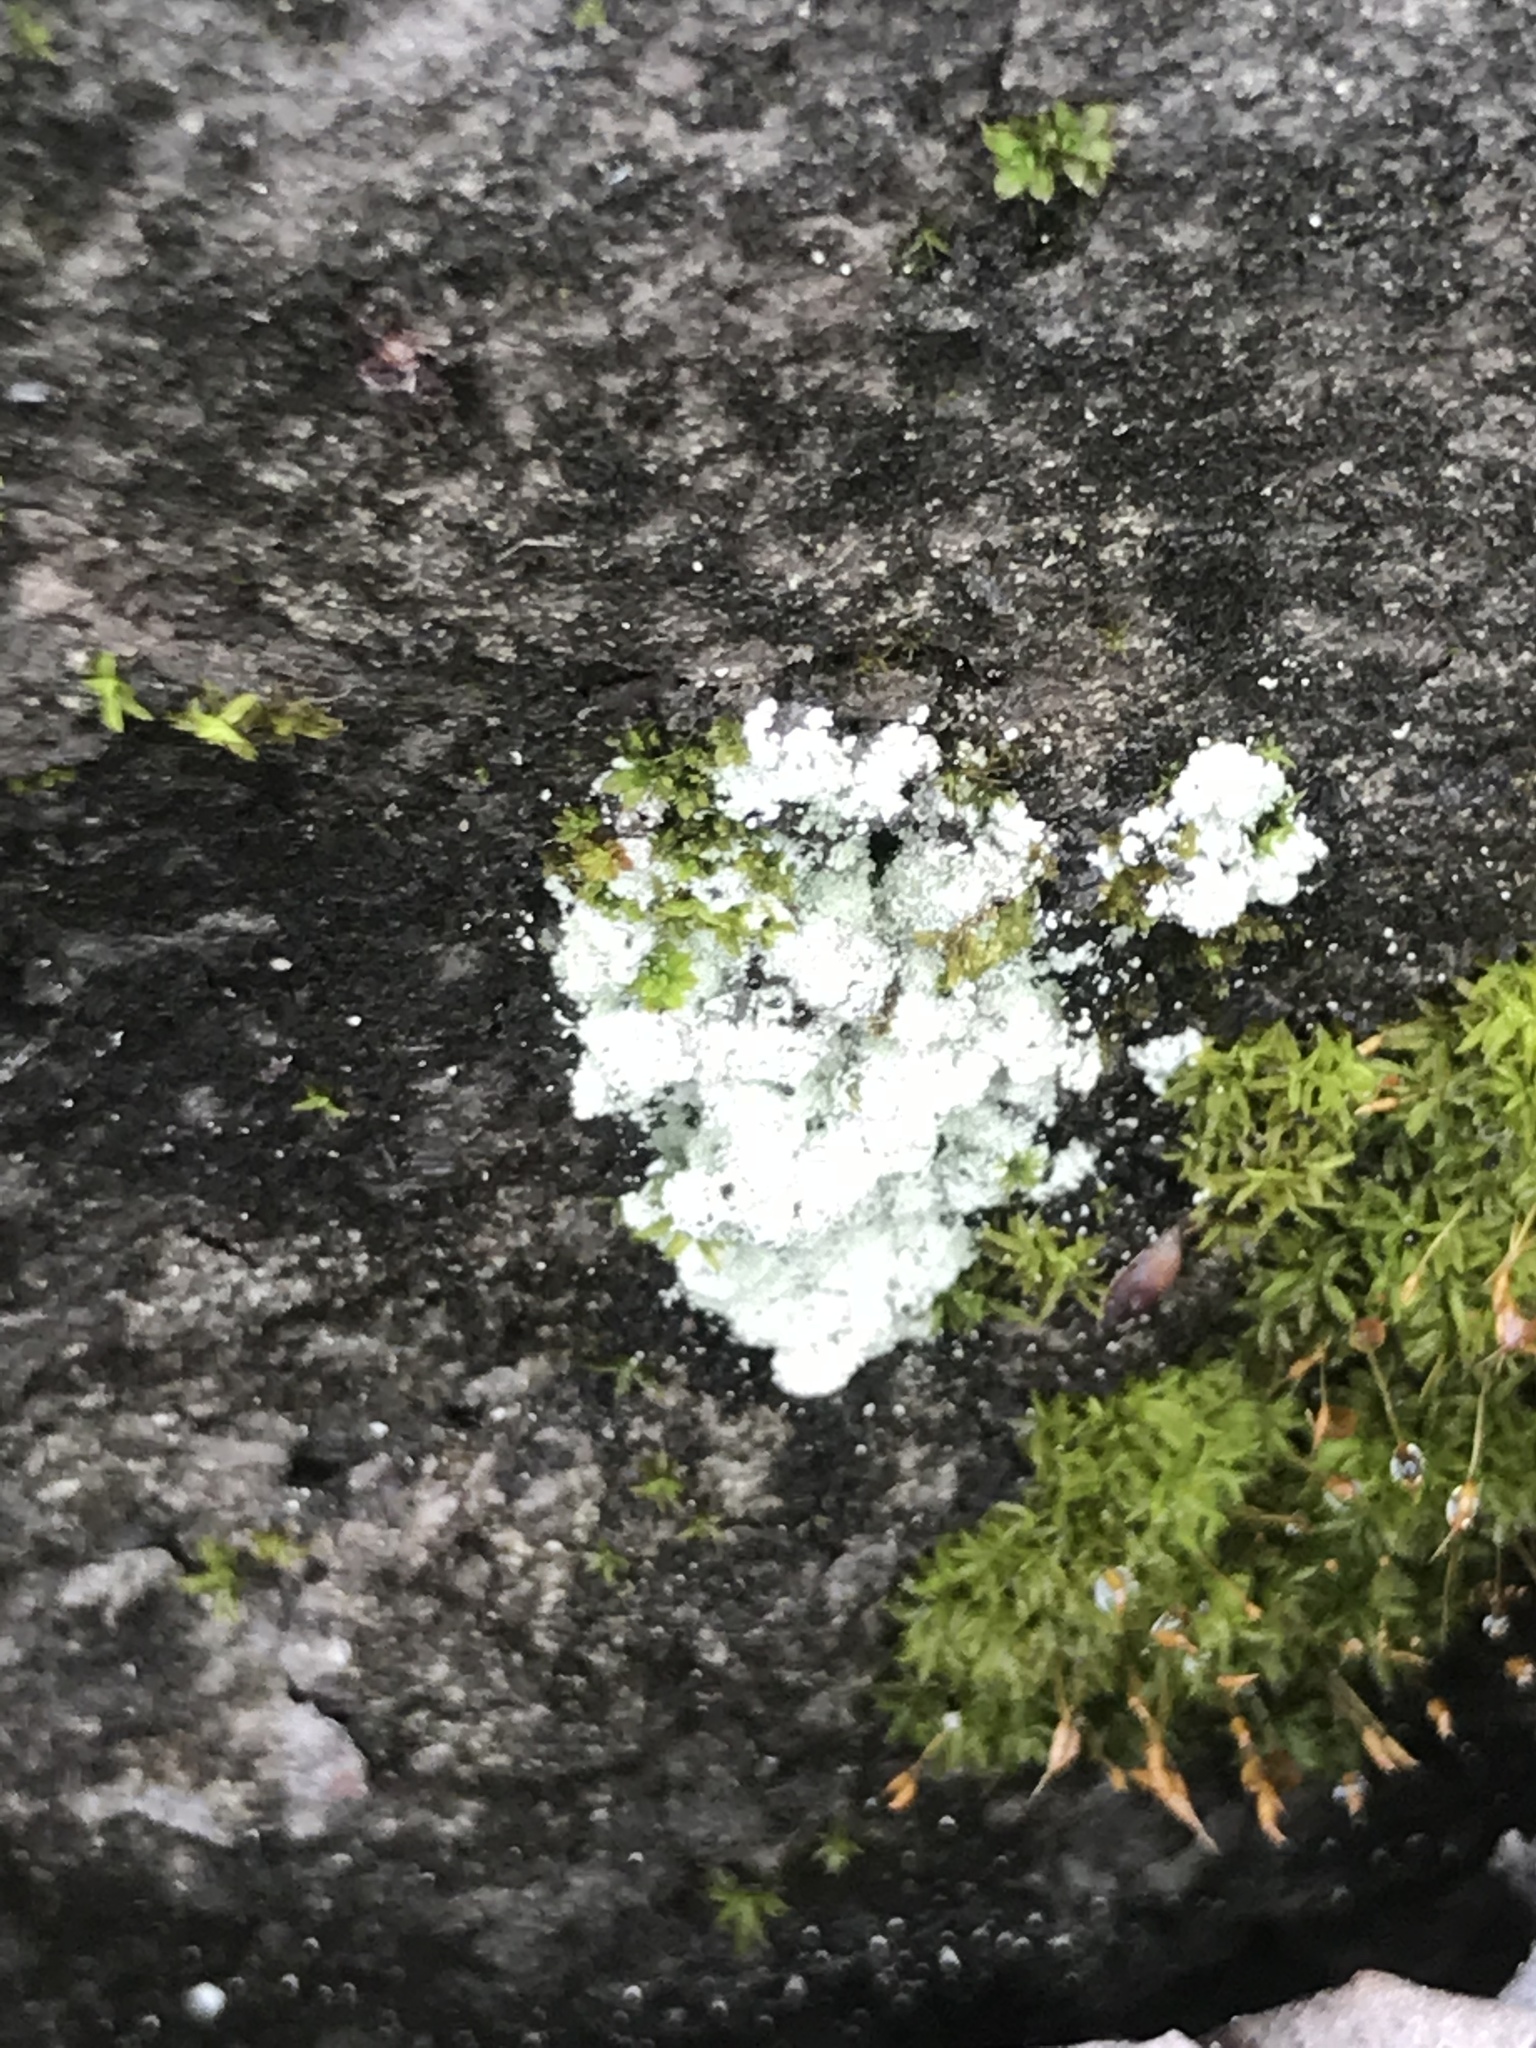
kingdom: Fungi
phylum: Ascomycota
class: Lecanoromycetes
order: Lecanorales
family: Stereocaulaceae
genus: Lepraria
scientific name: Lepraria lobificans
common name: Fluffy dust lichen
